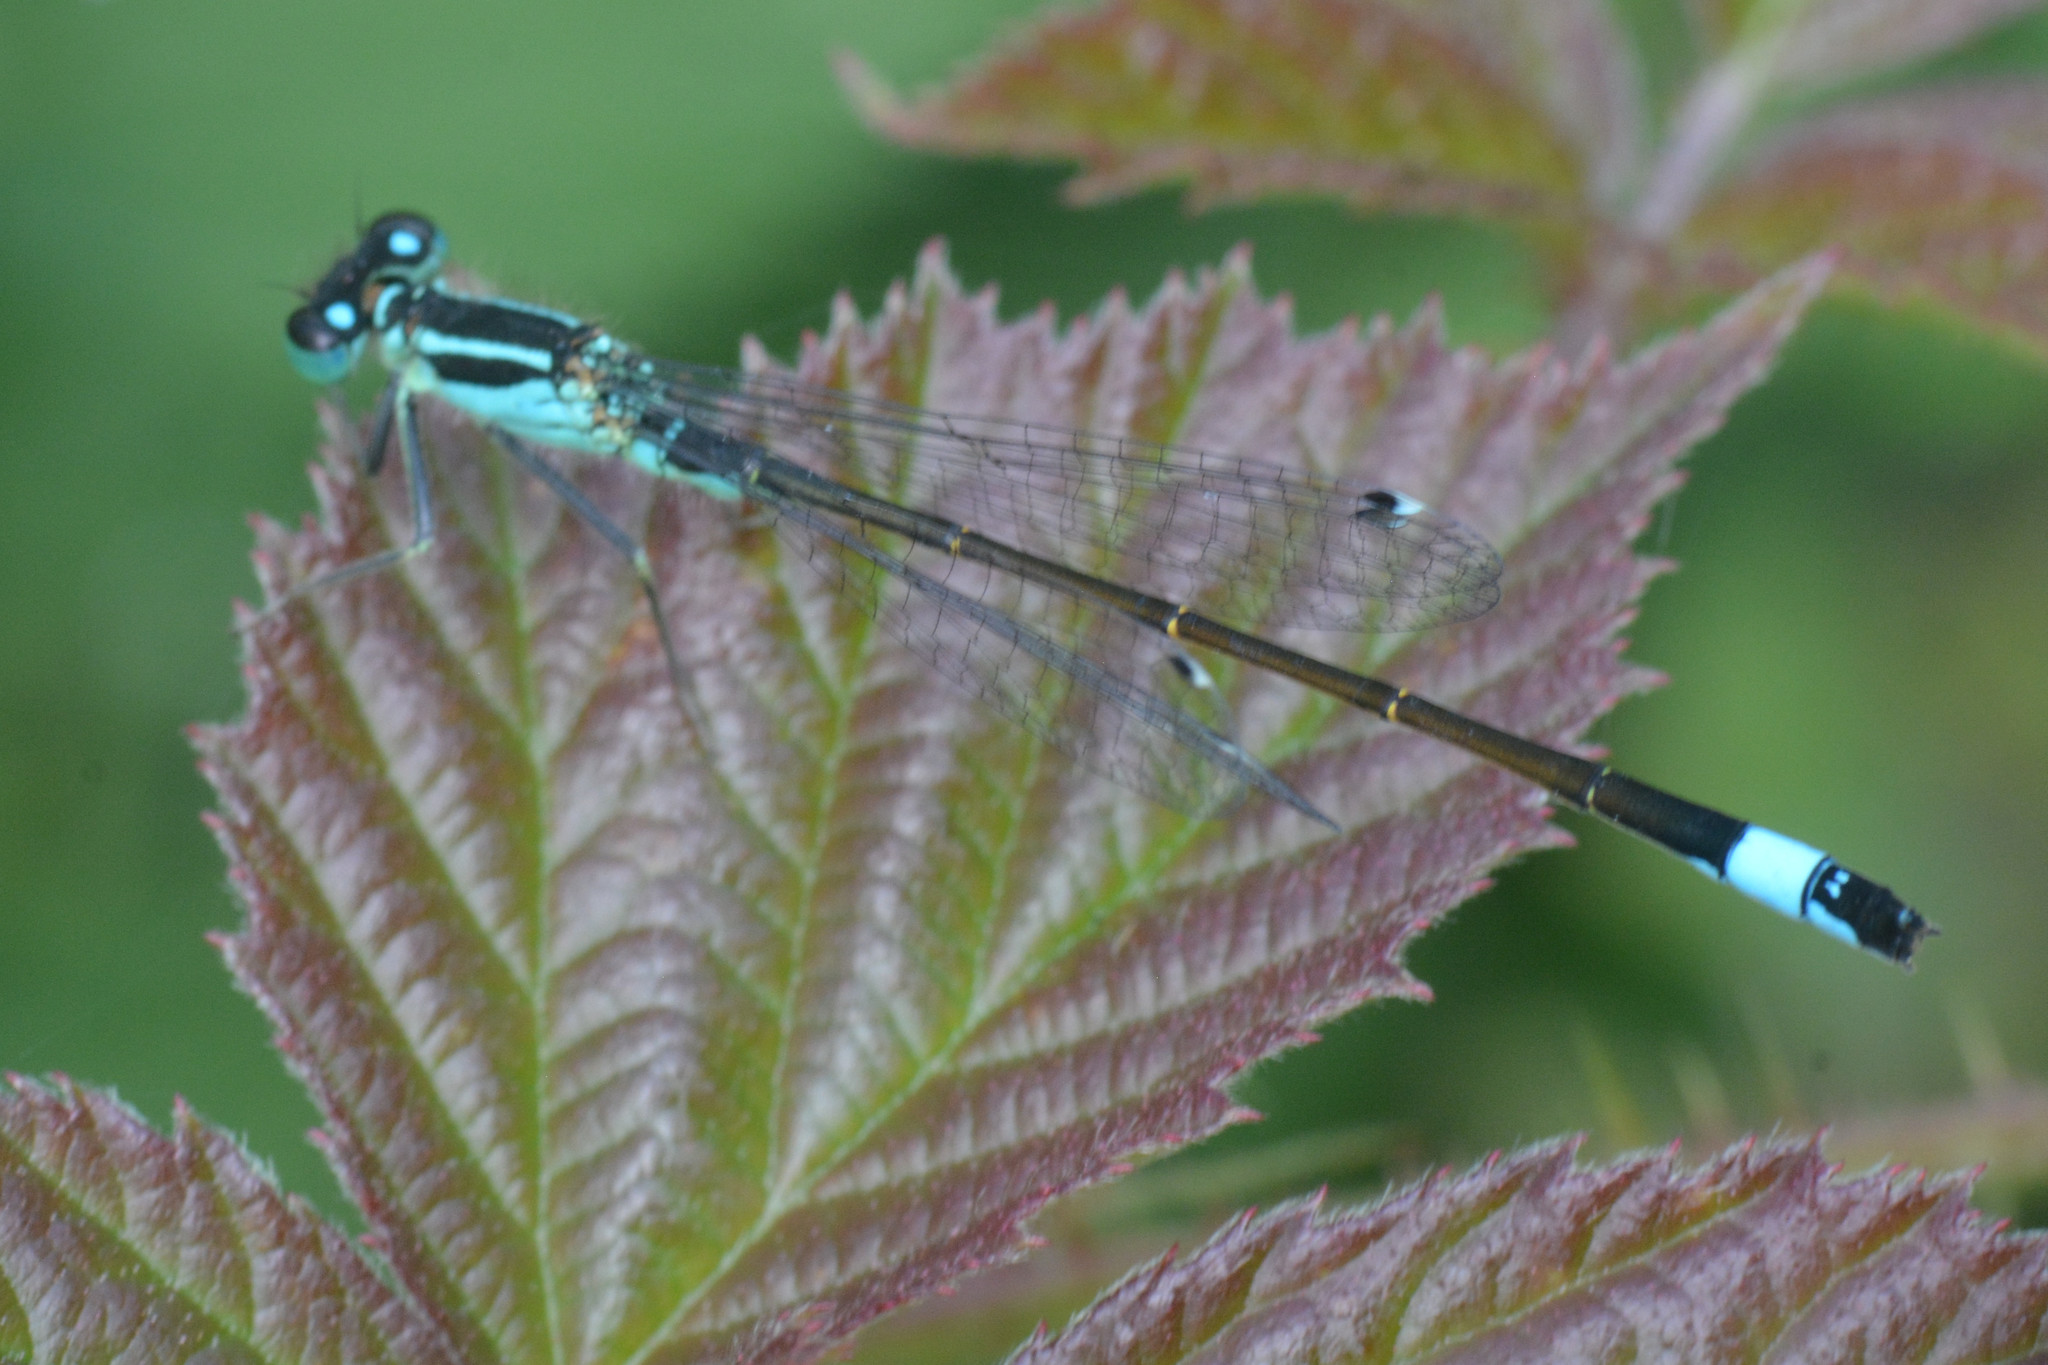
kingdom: Animalia
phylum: Arthropoda
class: Insecta
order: Odonata
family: Coenagrionidae
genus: Ischnura
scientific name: Ischnura elegans
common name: Blue-tailed damselfly
